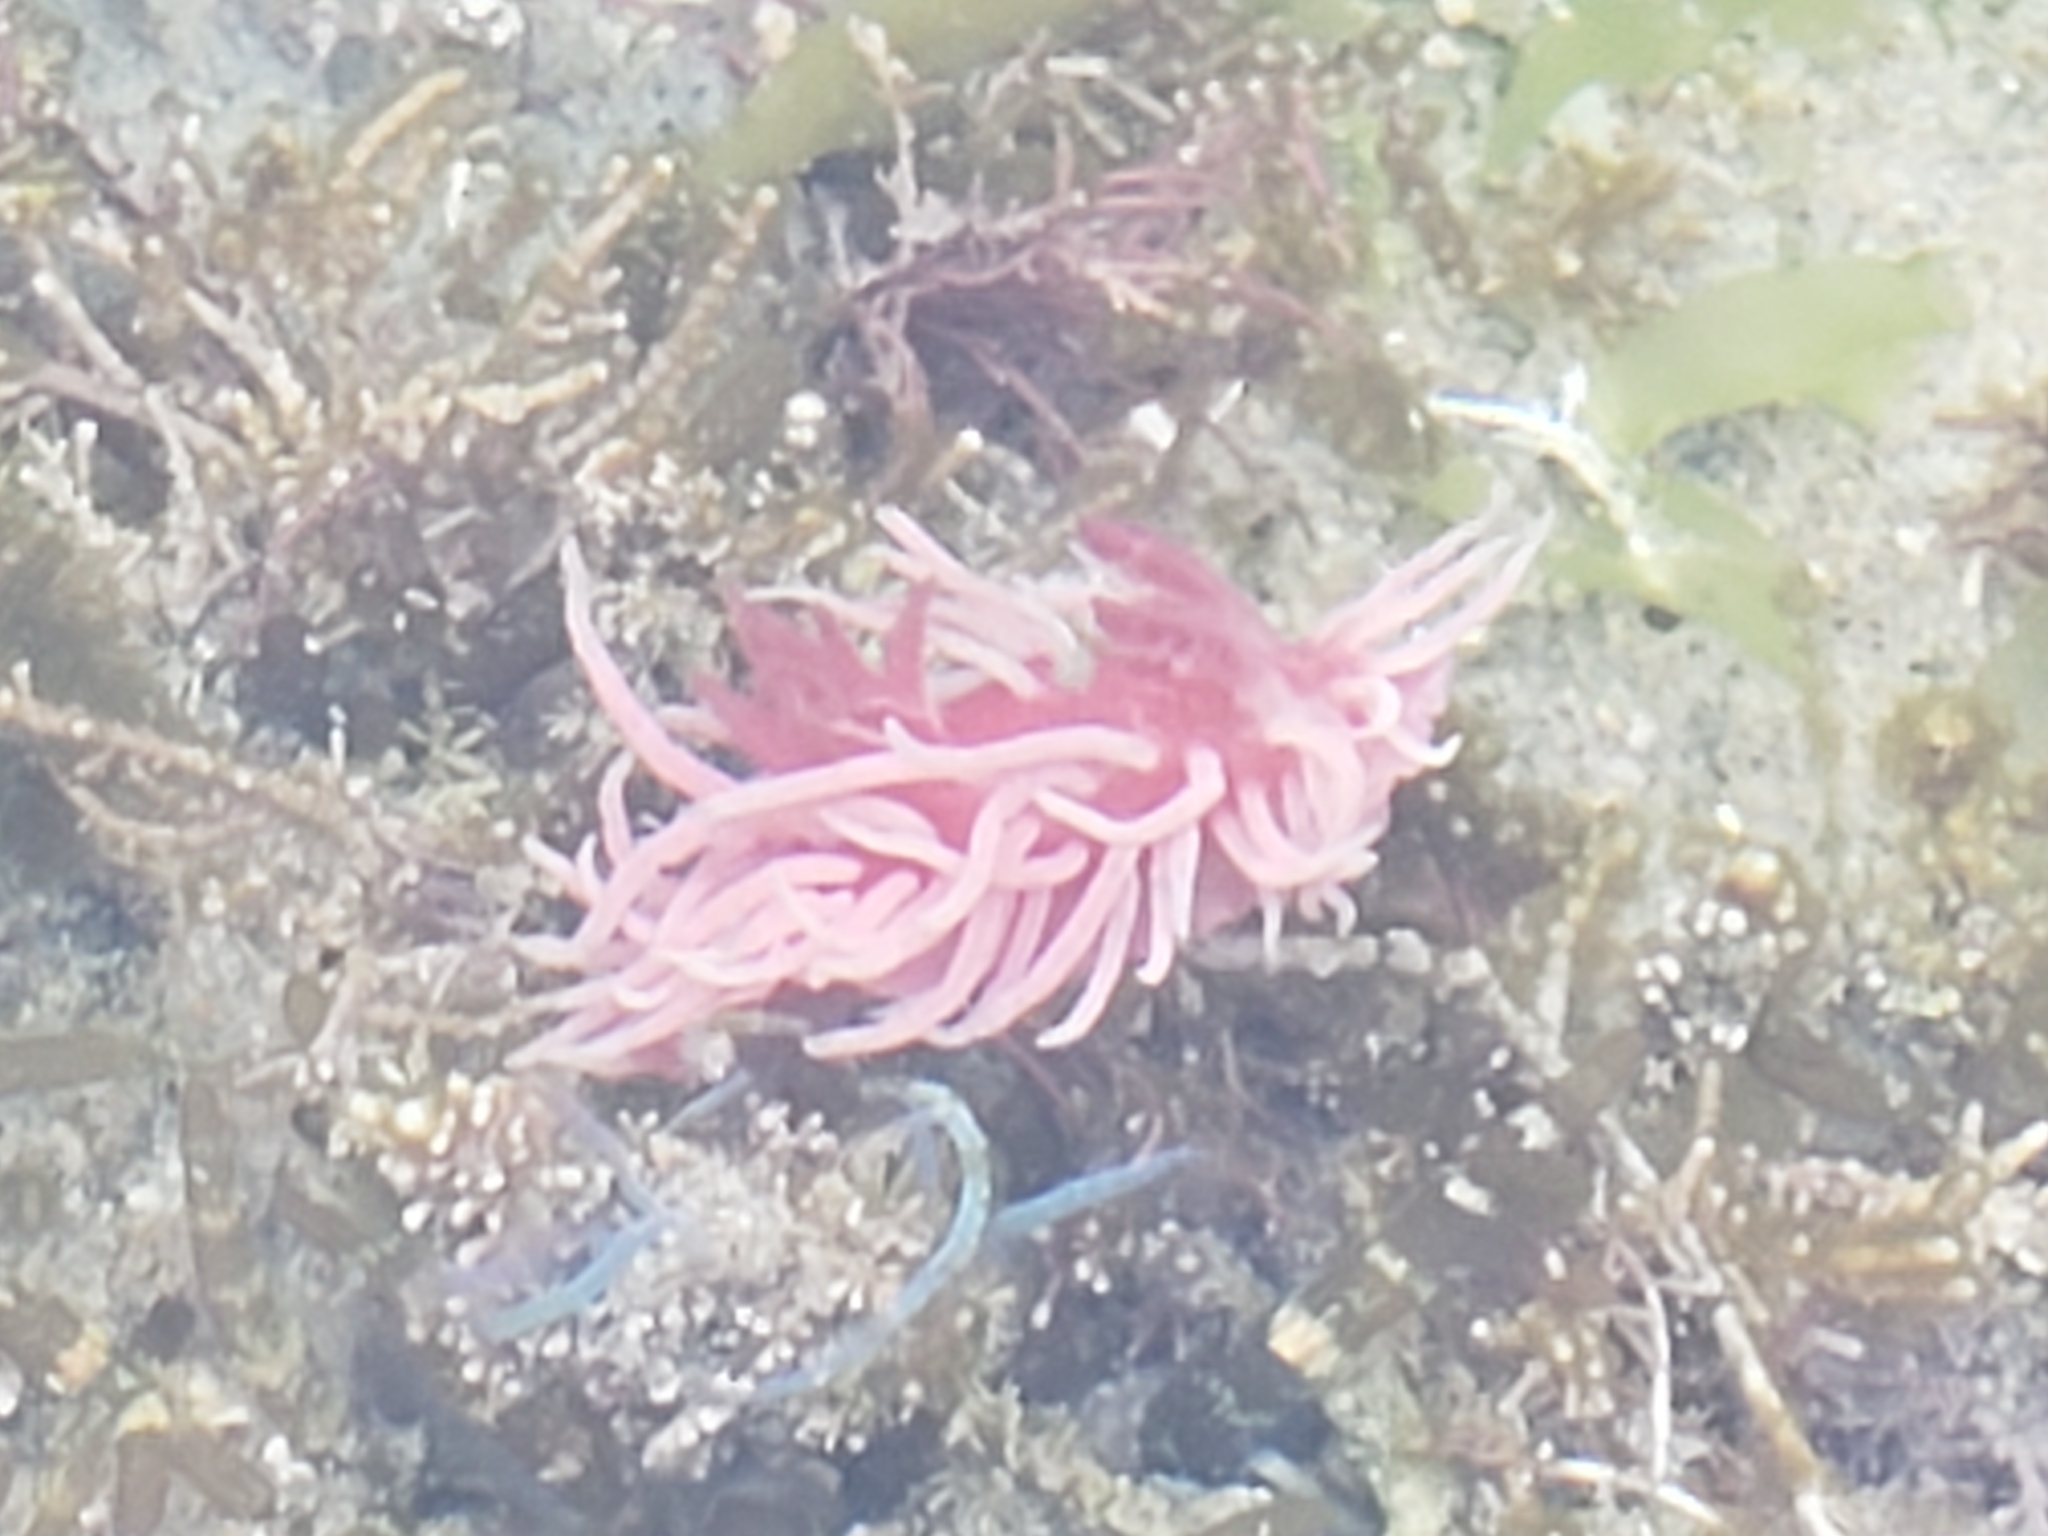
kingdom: Animalia
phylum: Mollusca
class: Gastropoda
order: Nudibranchia
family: Goniodorididae
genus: Okenia
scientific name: Okenia
